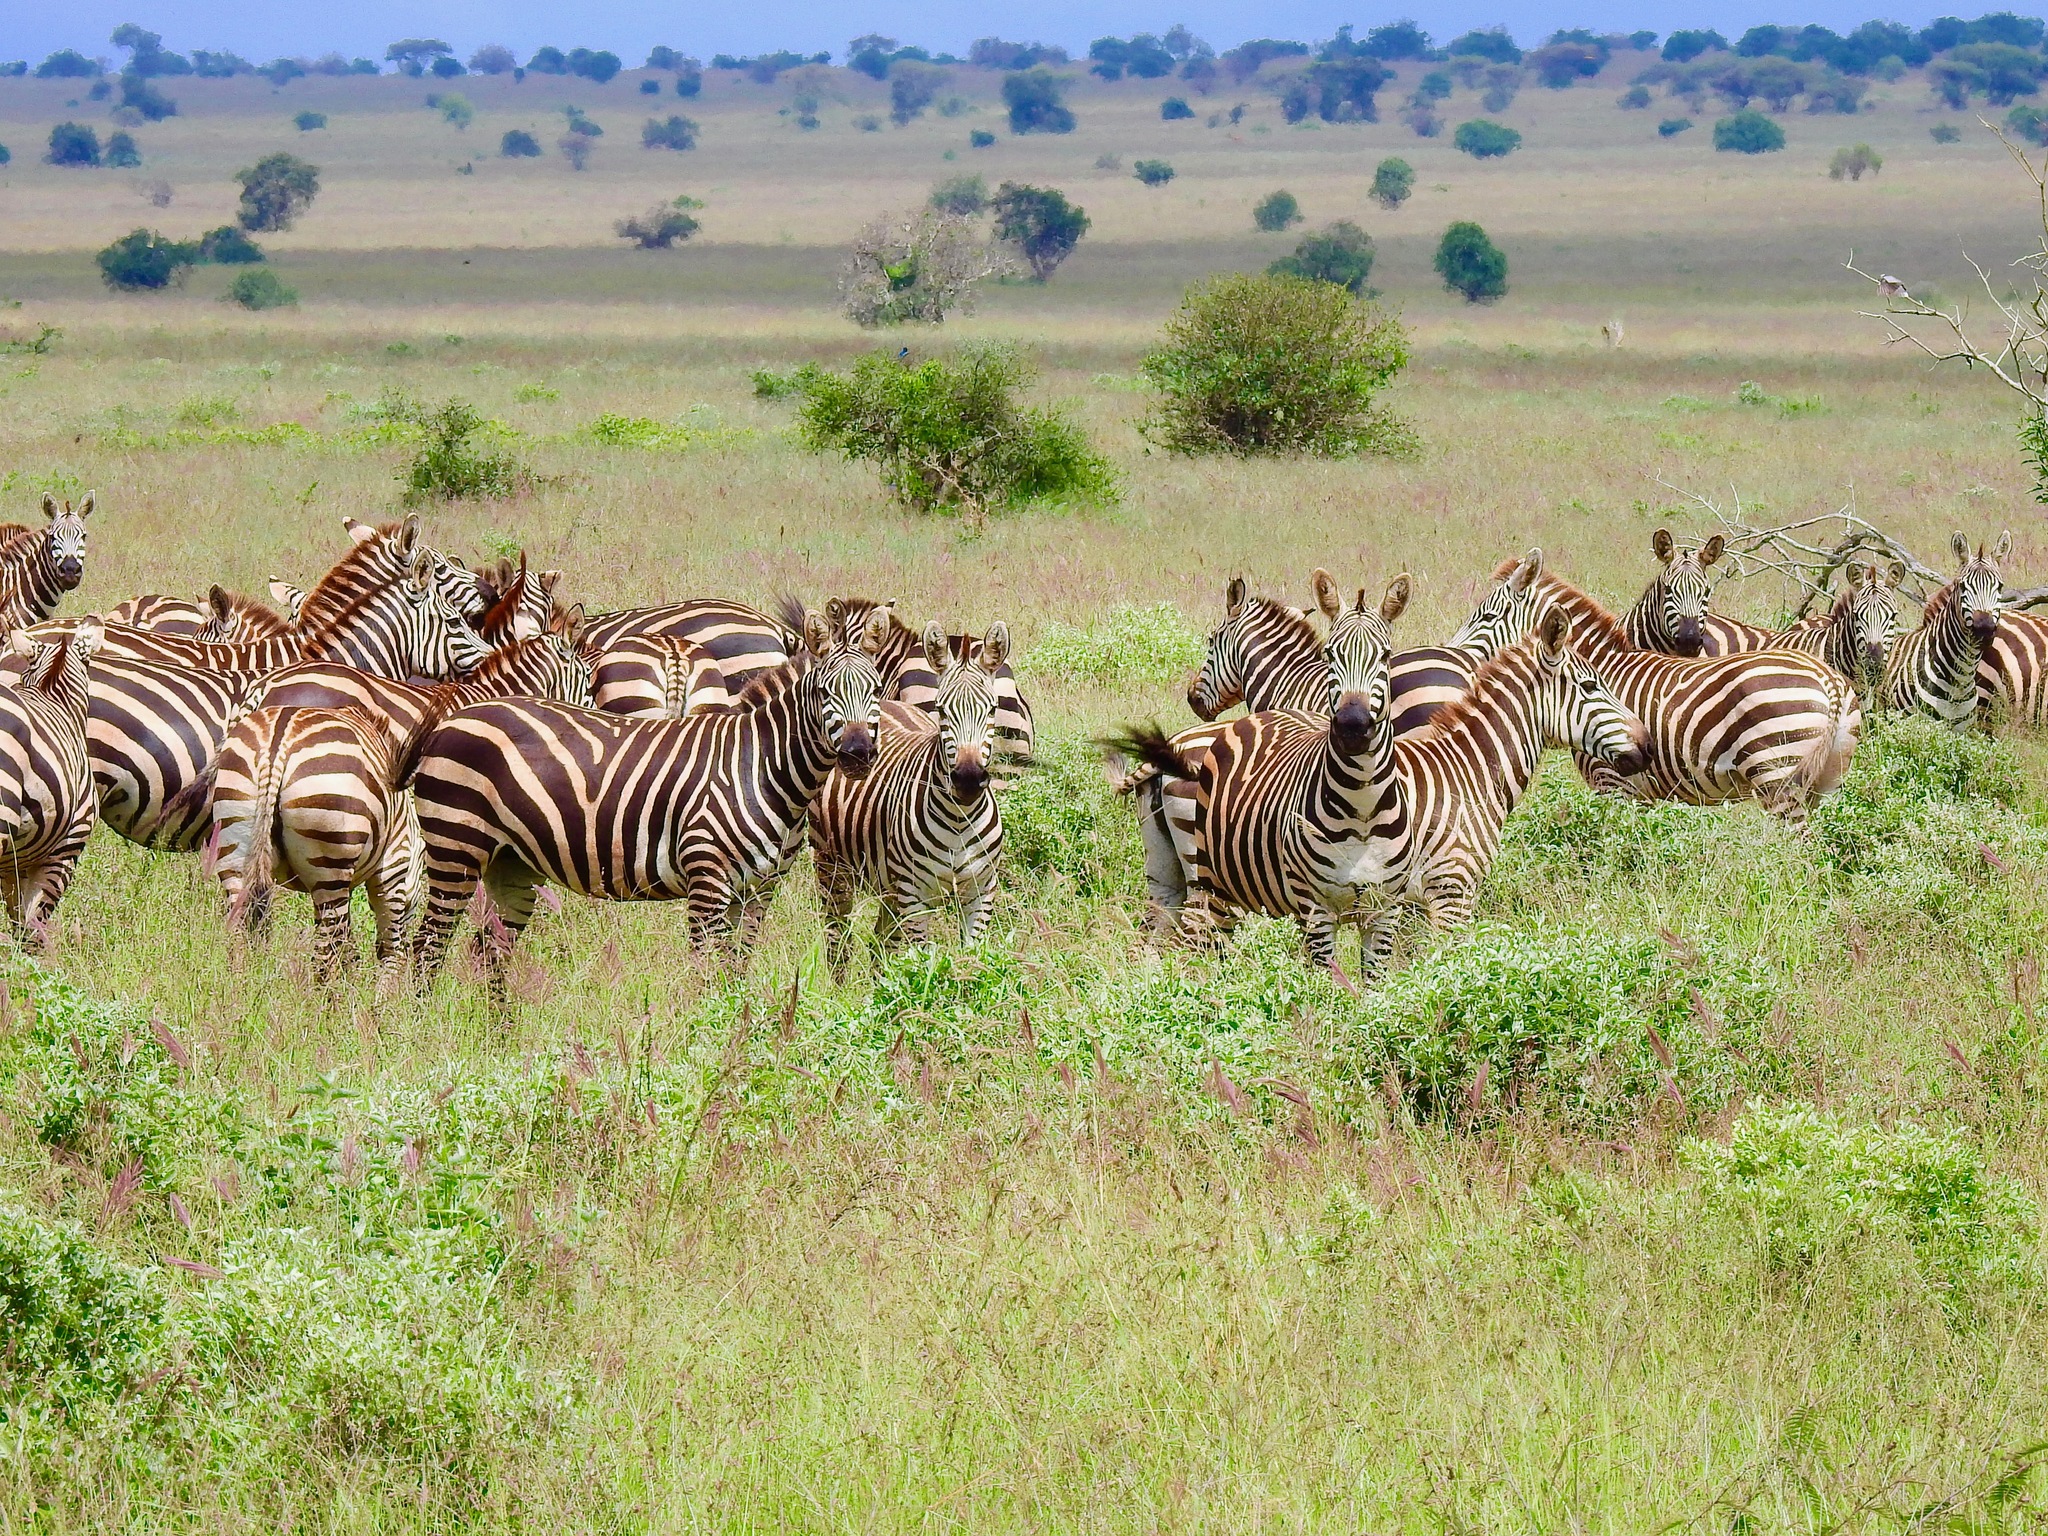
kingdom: Animalia
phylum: Chordata
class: Mammalia
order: Perissodactyla
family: Equidae
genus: Equus
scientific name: Equus quagga
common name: Plains zebra
